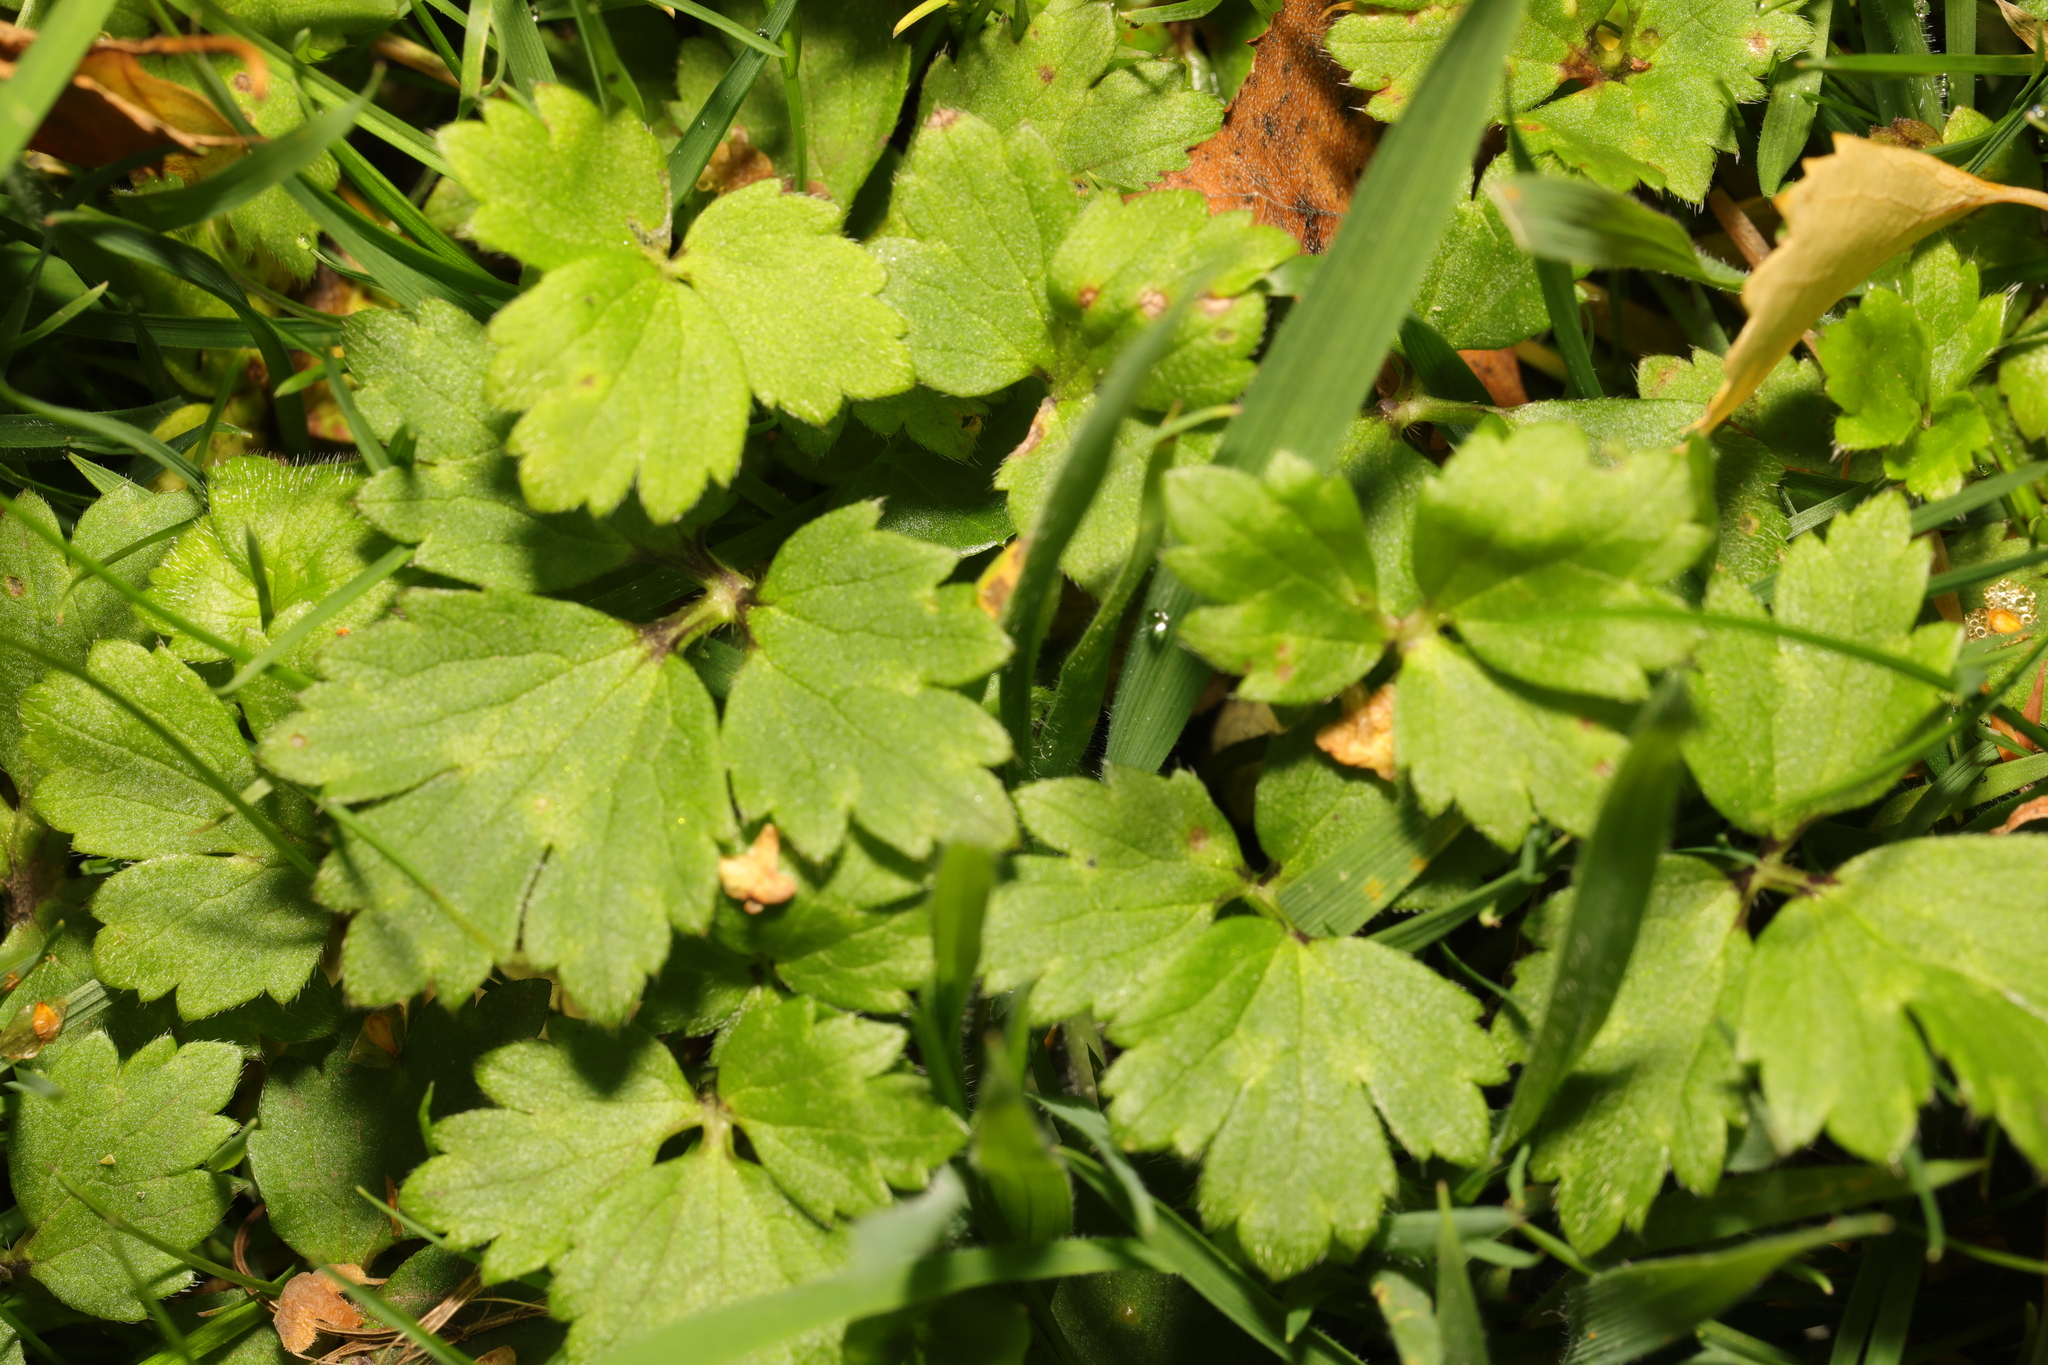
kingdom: Plantae
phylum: Tracheophyta
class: Magnoliopsida
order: Ranunculales
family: Ranunculaceae
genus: Ranunculus
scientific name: Ranunculus repens
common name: Creeping buttercup
